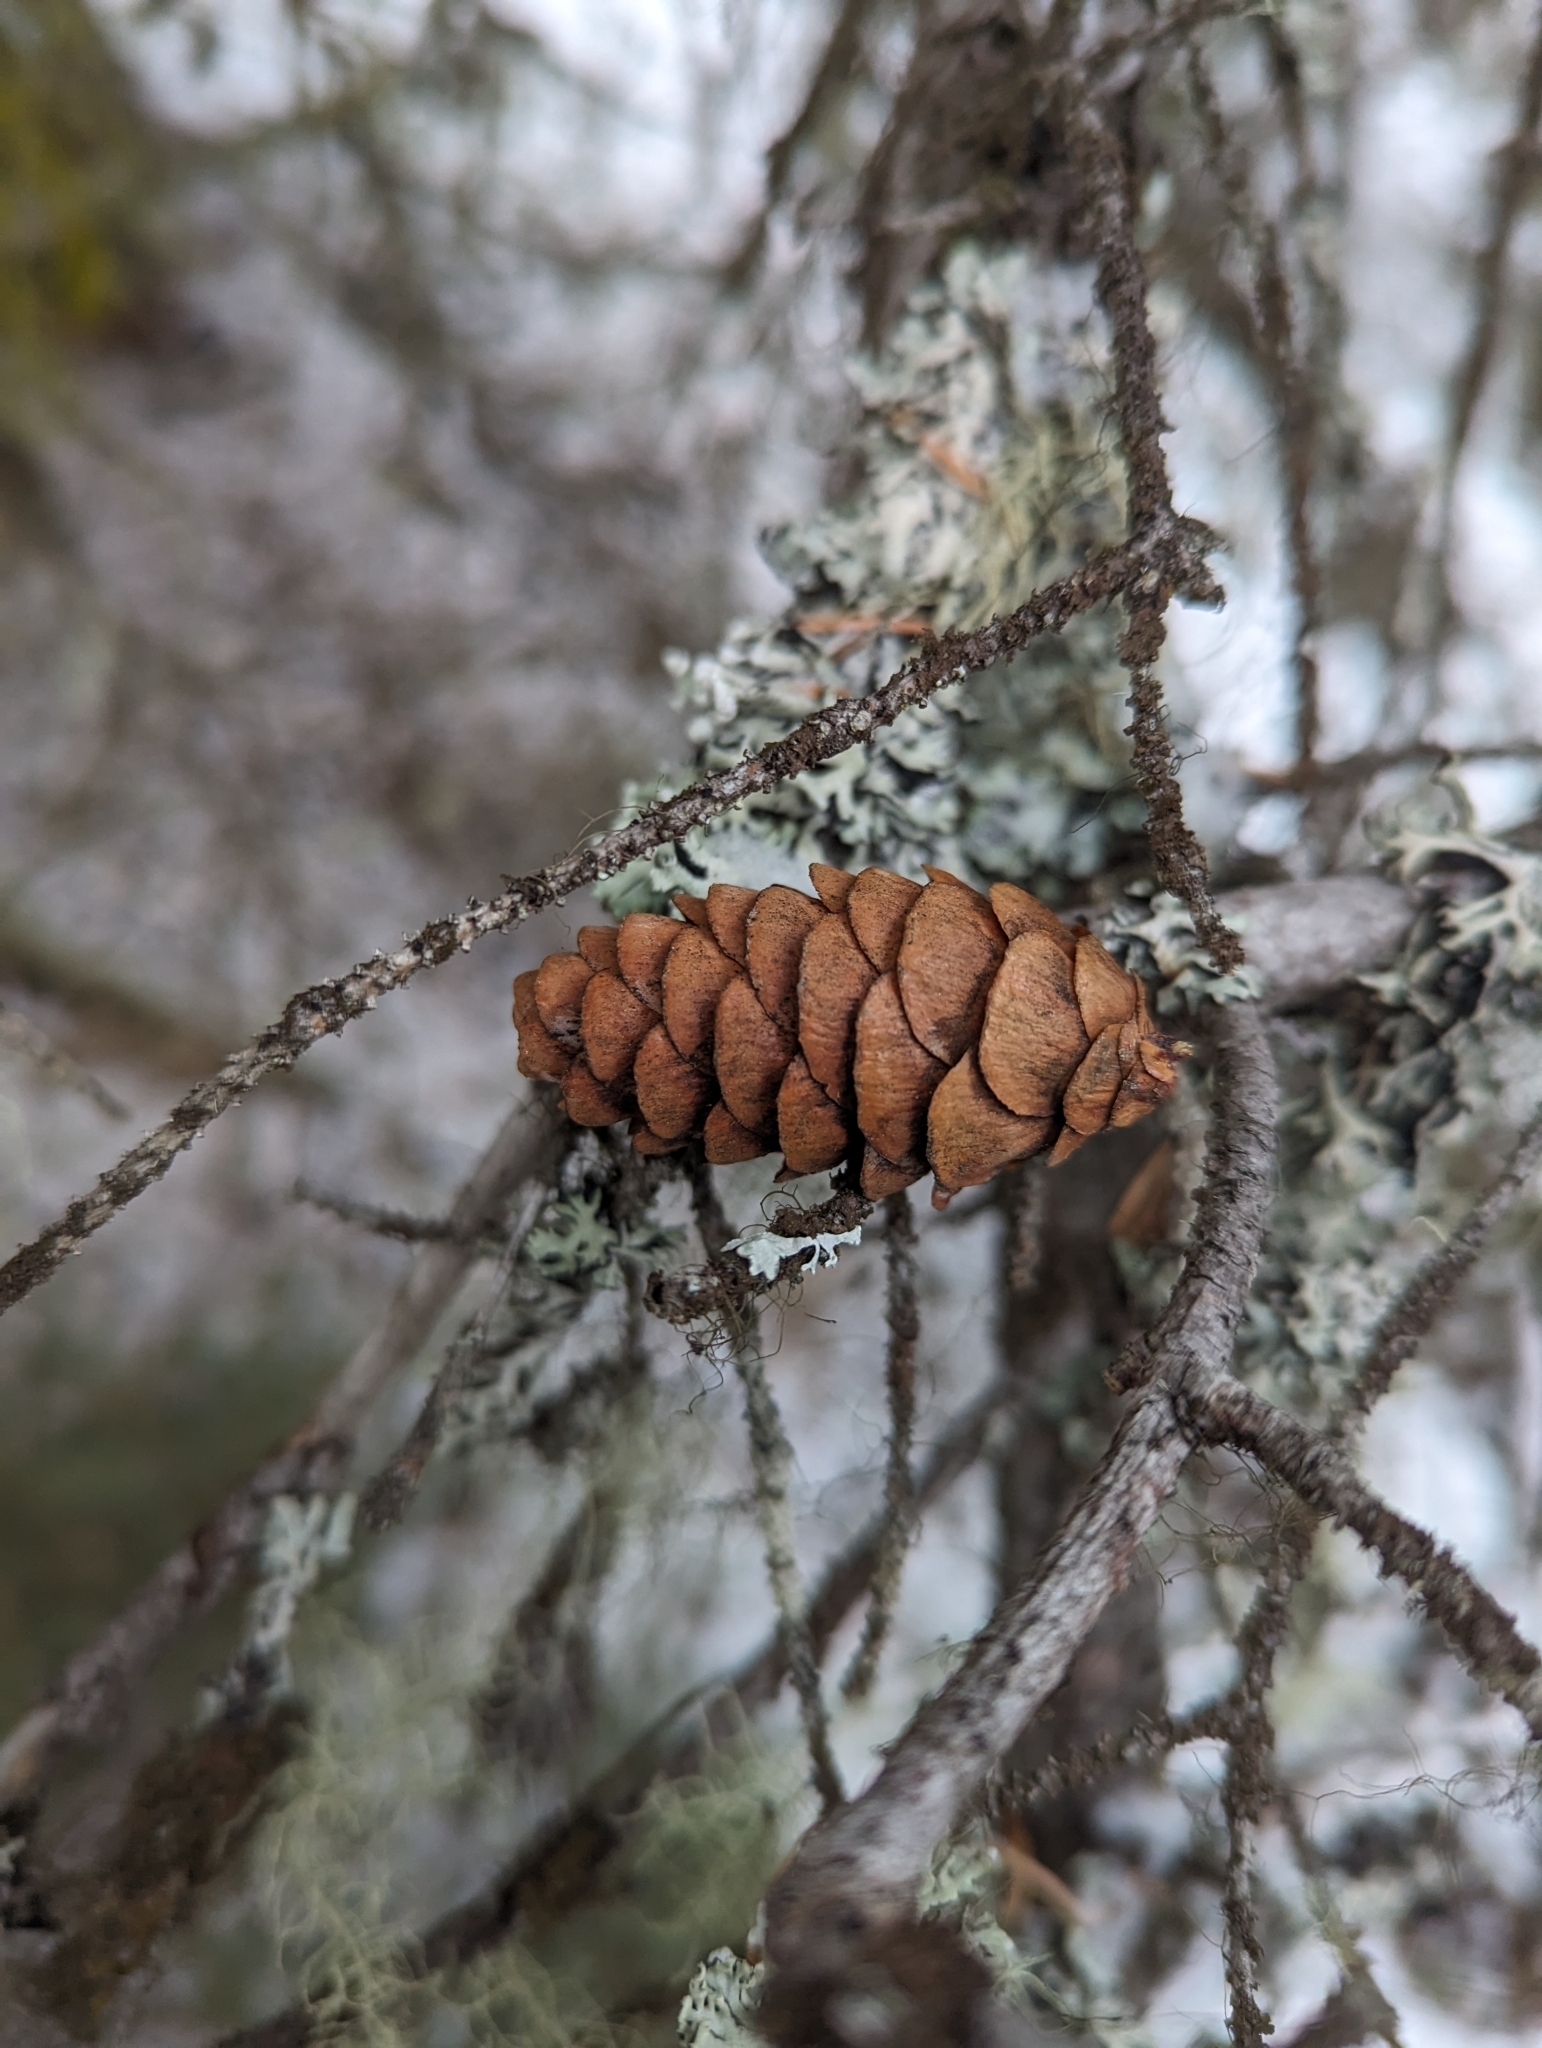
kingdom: Plantae
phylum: Tracheophyta
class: Pinopsida
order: Pinales
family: Pinaceae
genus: Picea
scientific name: Picea glauca
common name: White spruce
